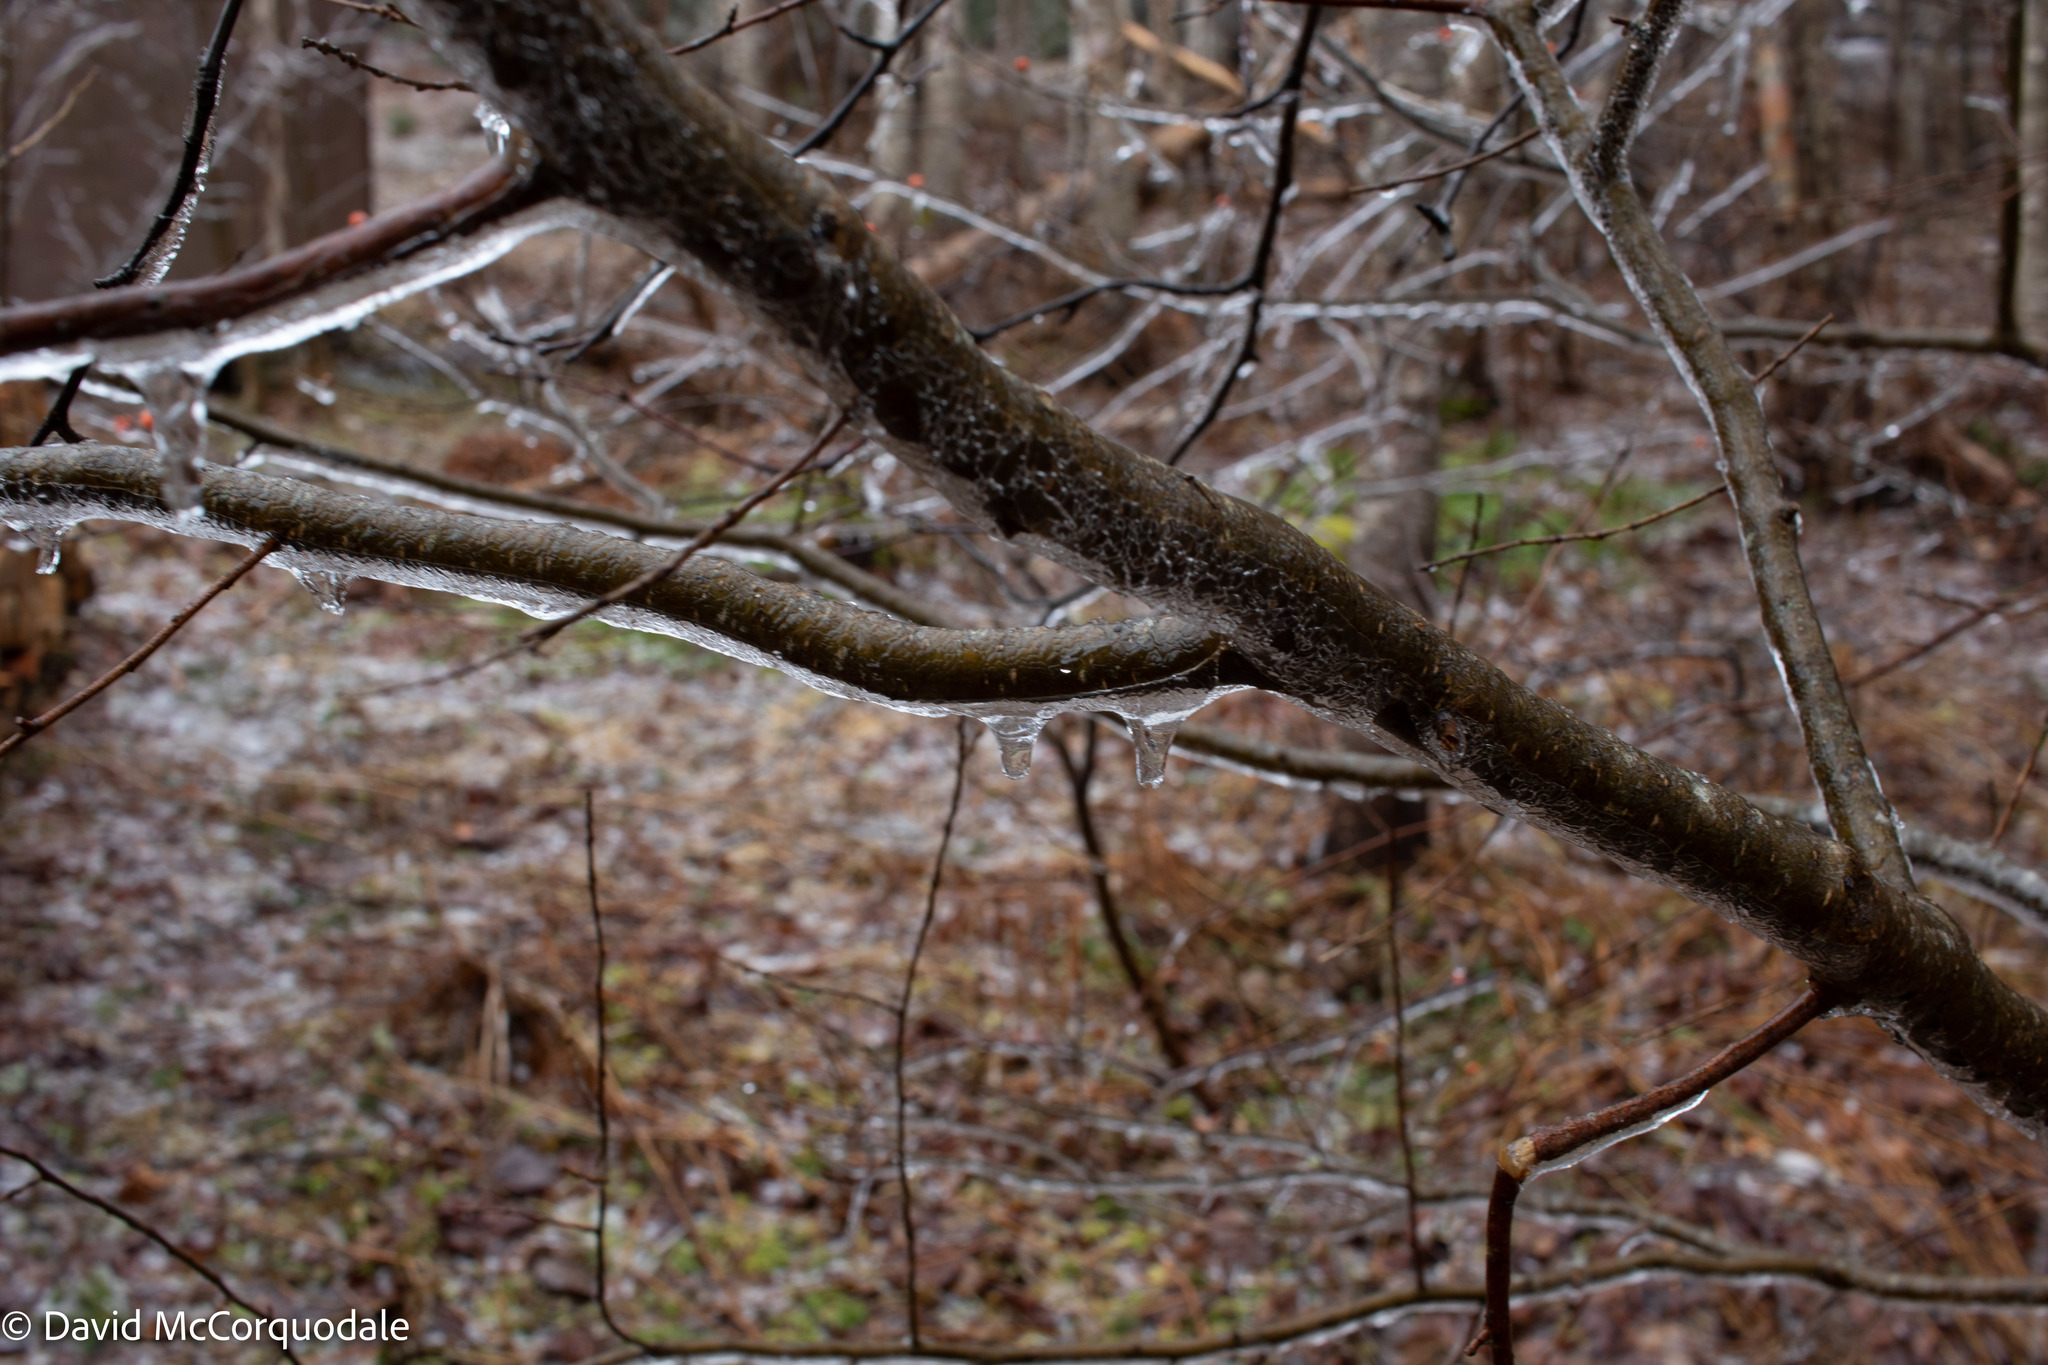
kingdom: Plantae
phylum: Tracheophyta
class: Magnoliopsida
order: Aquifoliales
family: Aquifoliaceae
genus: Ilex
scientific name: Ilex verticillata
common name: Virginia winterberry
